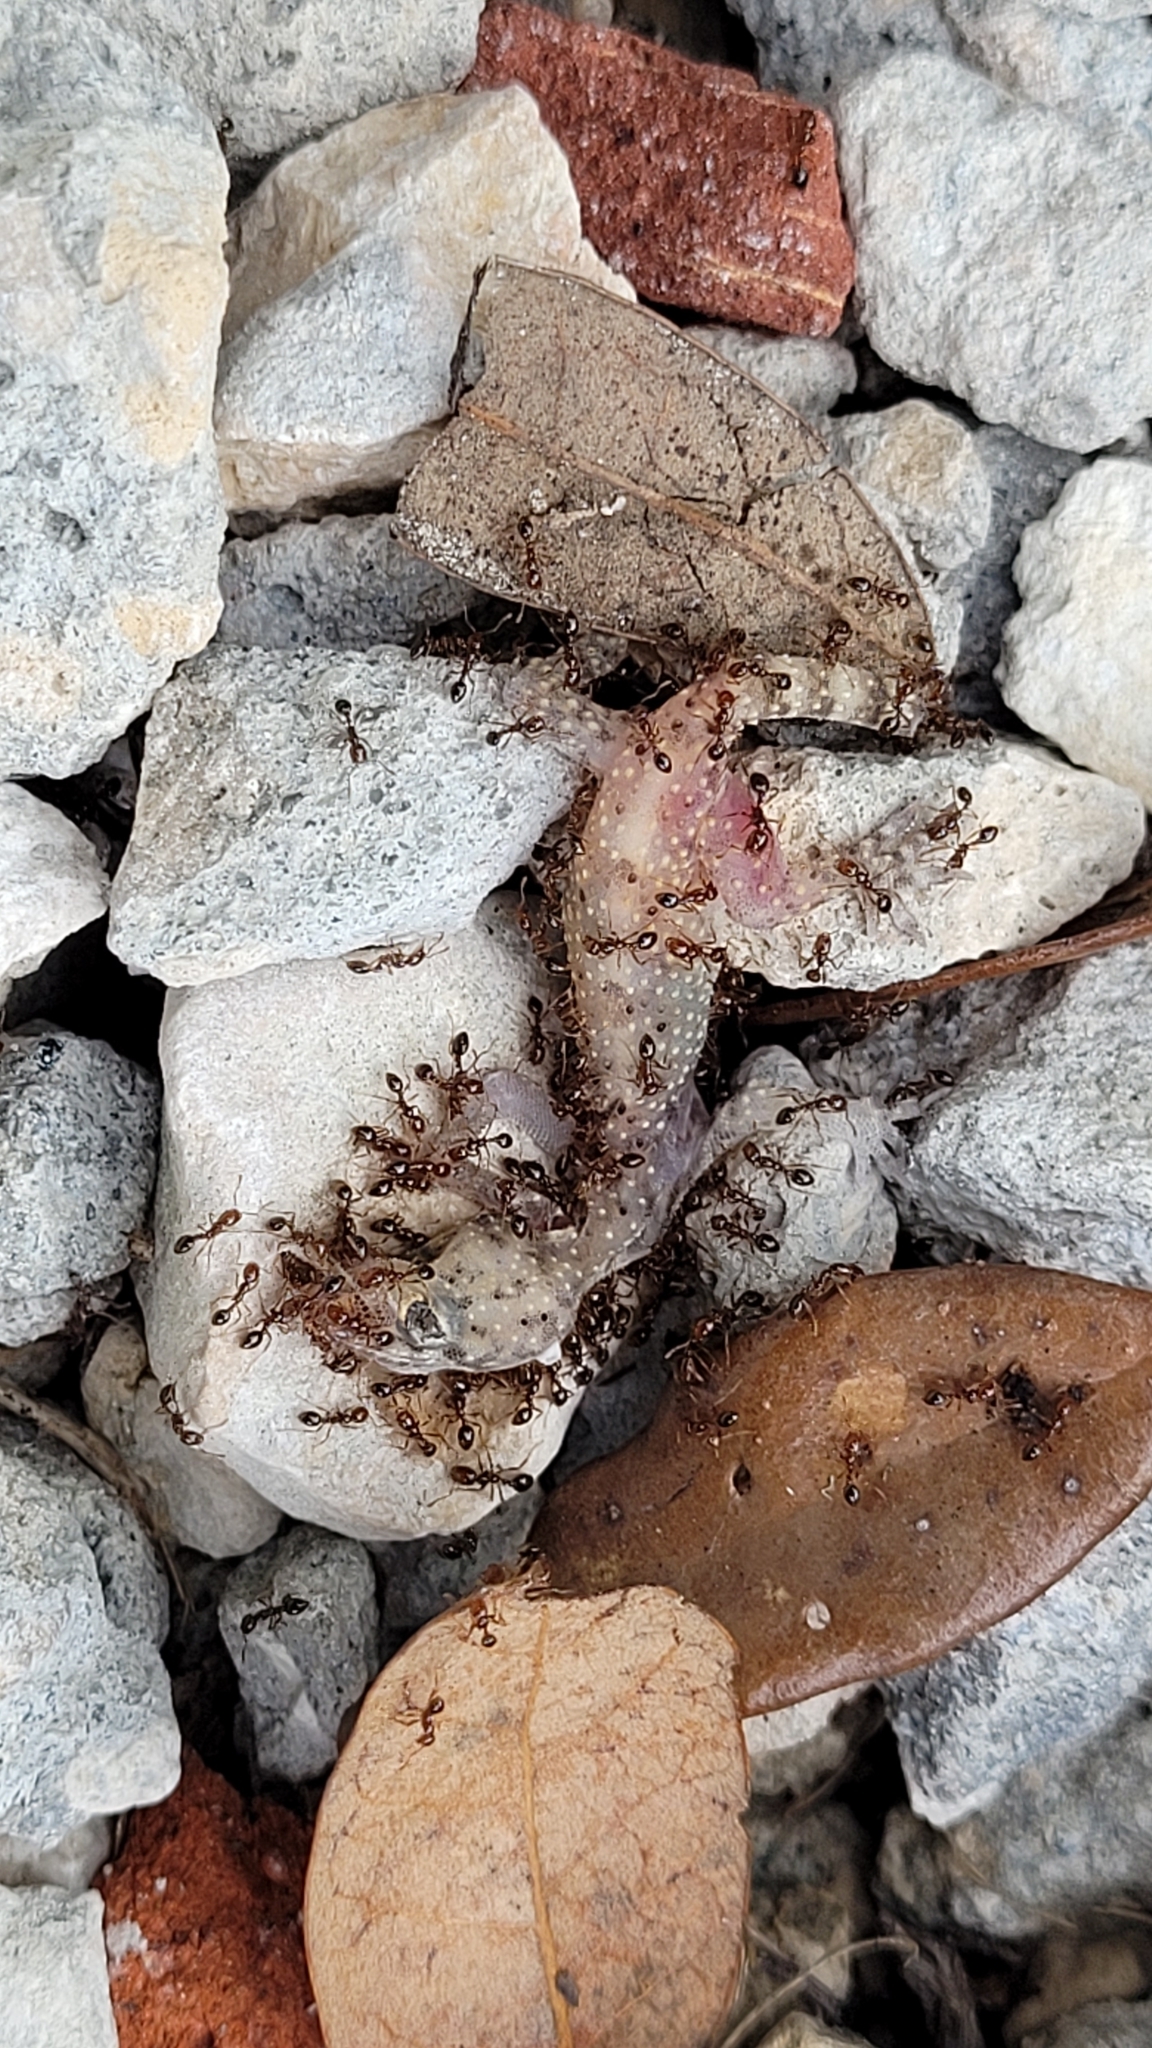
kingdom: Animalia
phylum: Chordata
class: Squamata
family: Gekkonidae
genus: Hemidactylus
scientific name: Hemidactylus turcicus
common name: Turkish gecko
